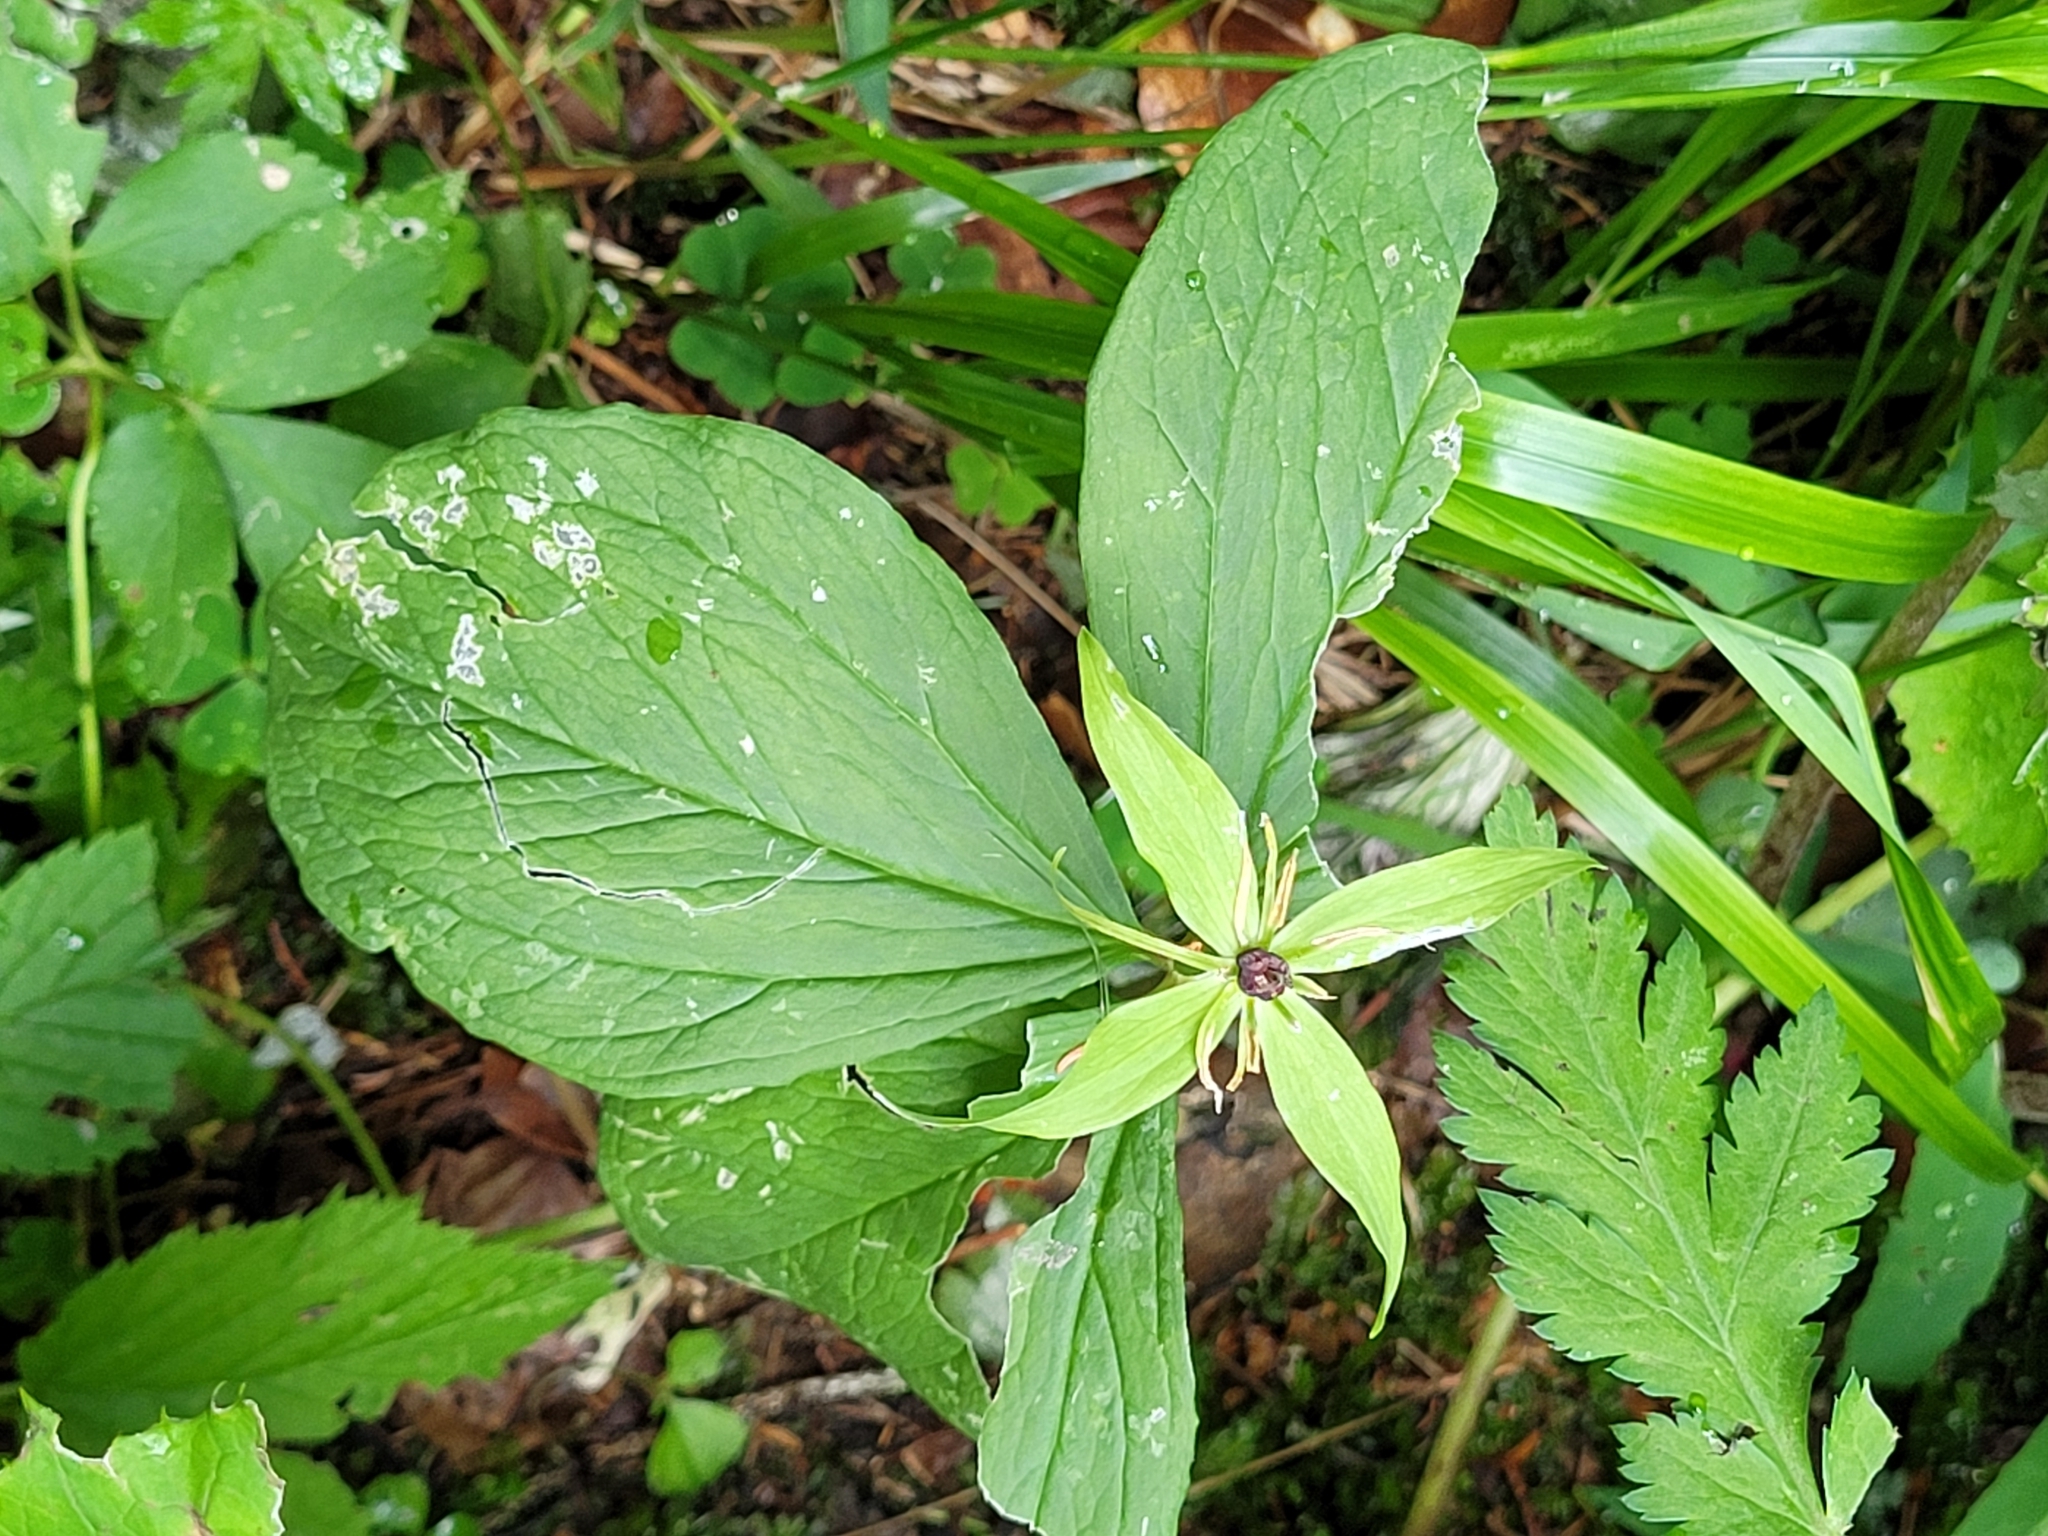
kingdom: Plantae
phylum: Tracheophyta
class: Liliopsida
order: Liliales
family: Melanthiaceae
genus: Paris
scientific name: Paris quadrifolia
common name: Herb-paris
